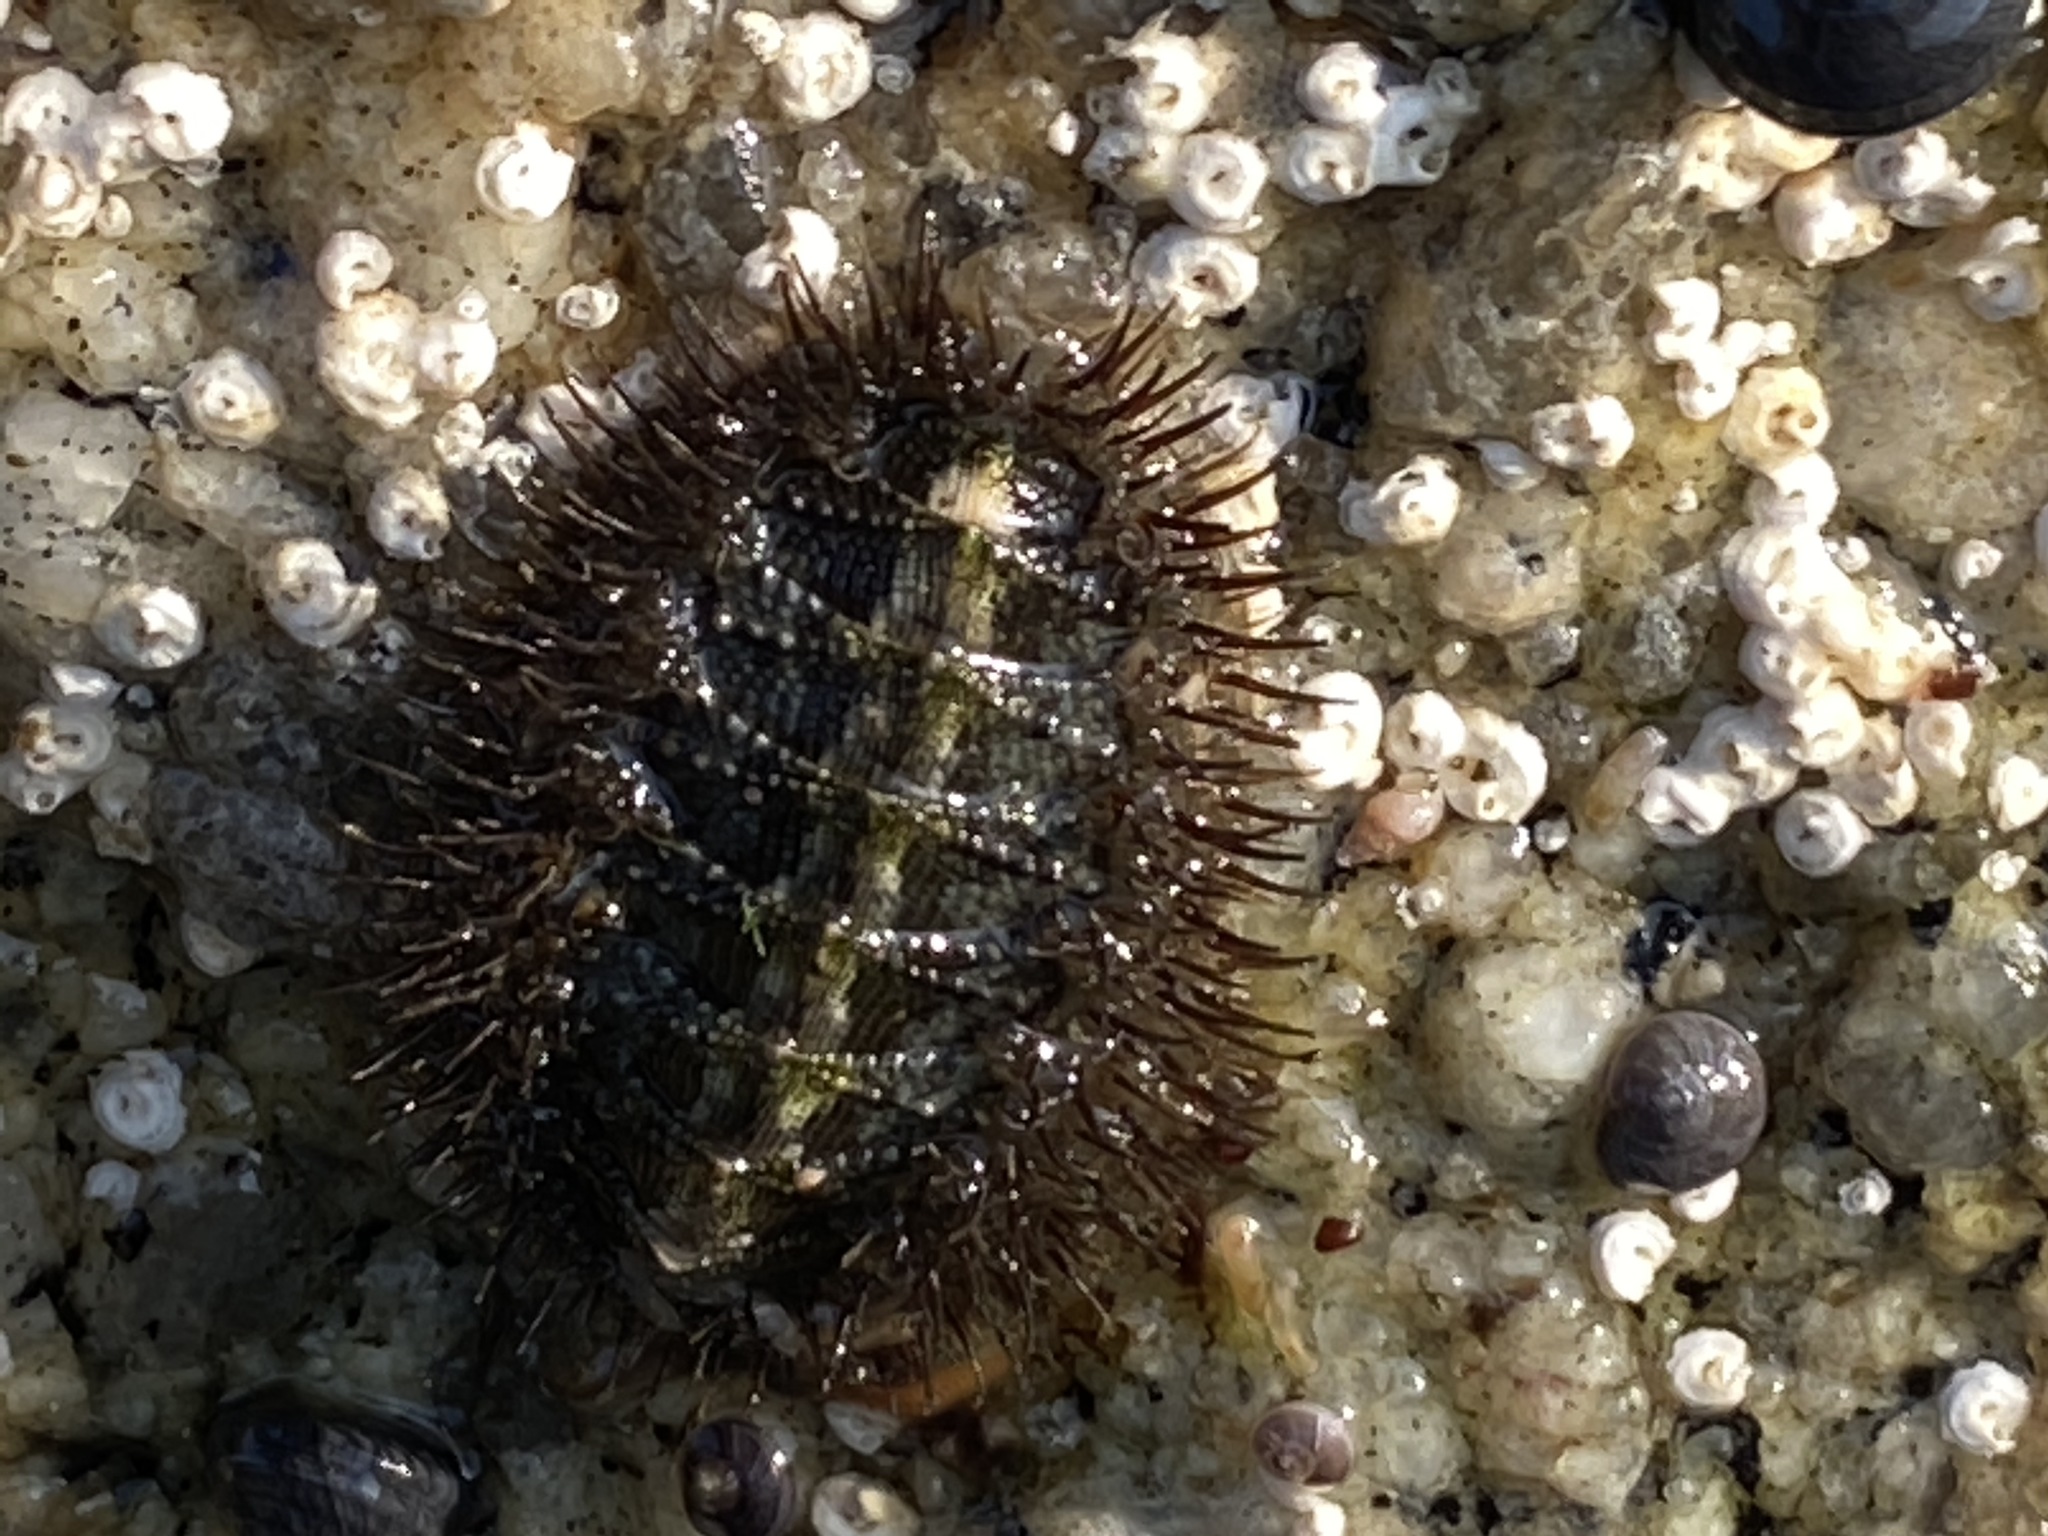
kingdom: Animalia
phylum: Mollusca
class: Polyplacophora
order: Chitonida
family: Mopaliidae
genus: Mopalia
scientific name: Mopalia muscosa
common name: Mossy chiton
